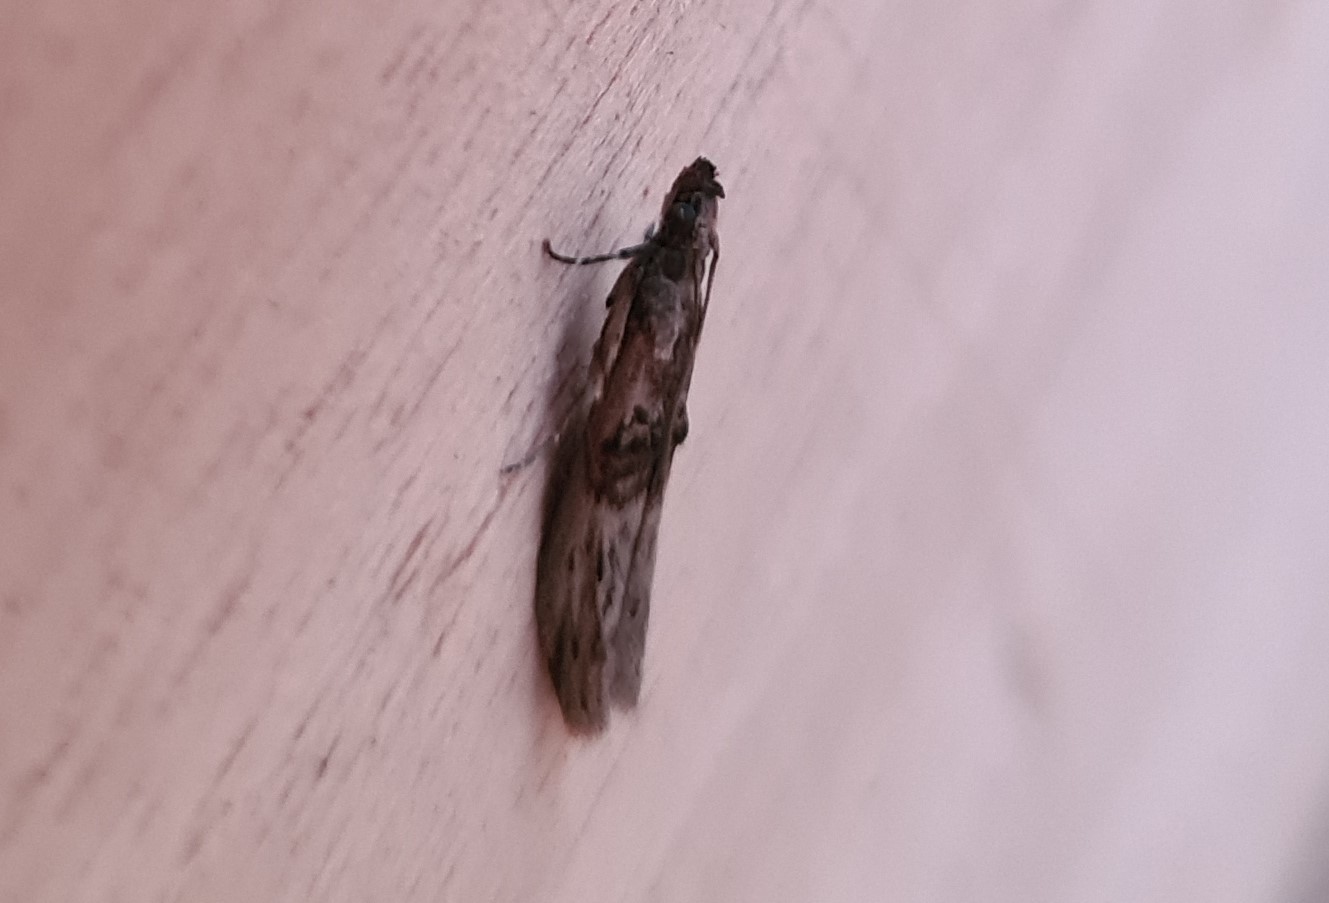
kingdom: Animalia
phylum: Arthropoda
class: Insecta
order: Lepidoptera
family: Pyralidae
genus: Nephopterix
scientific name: Nephopterix angustella
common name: Spindle knot-horn
